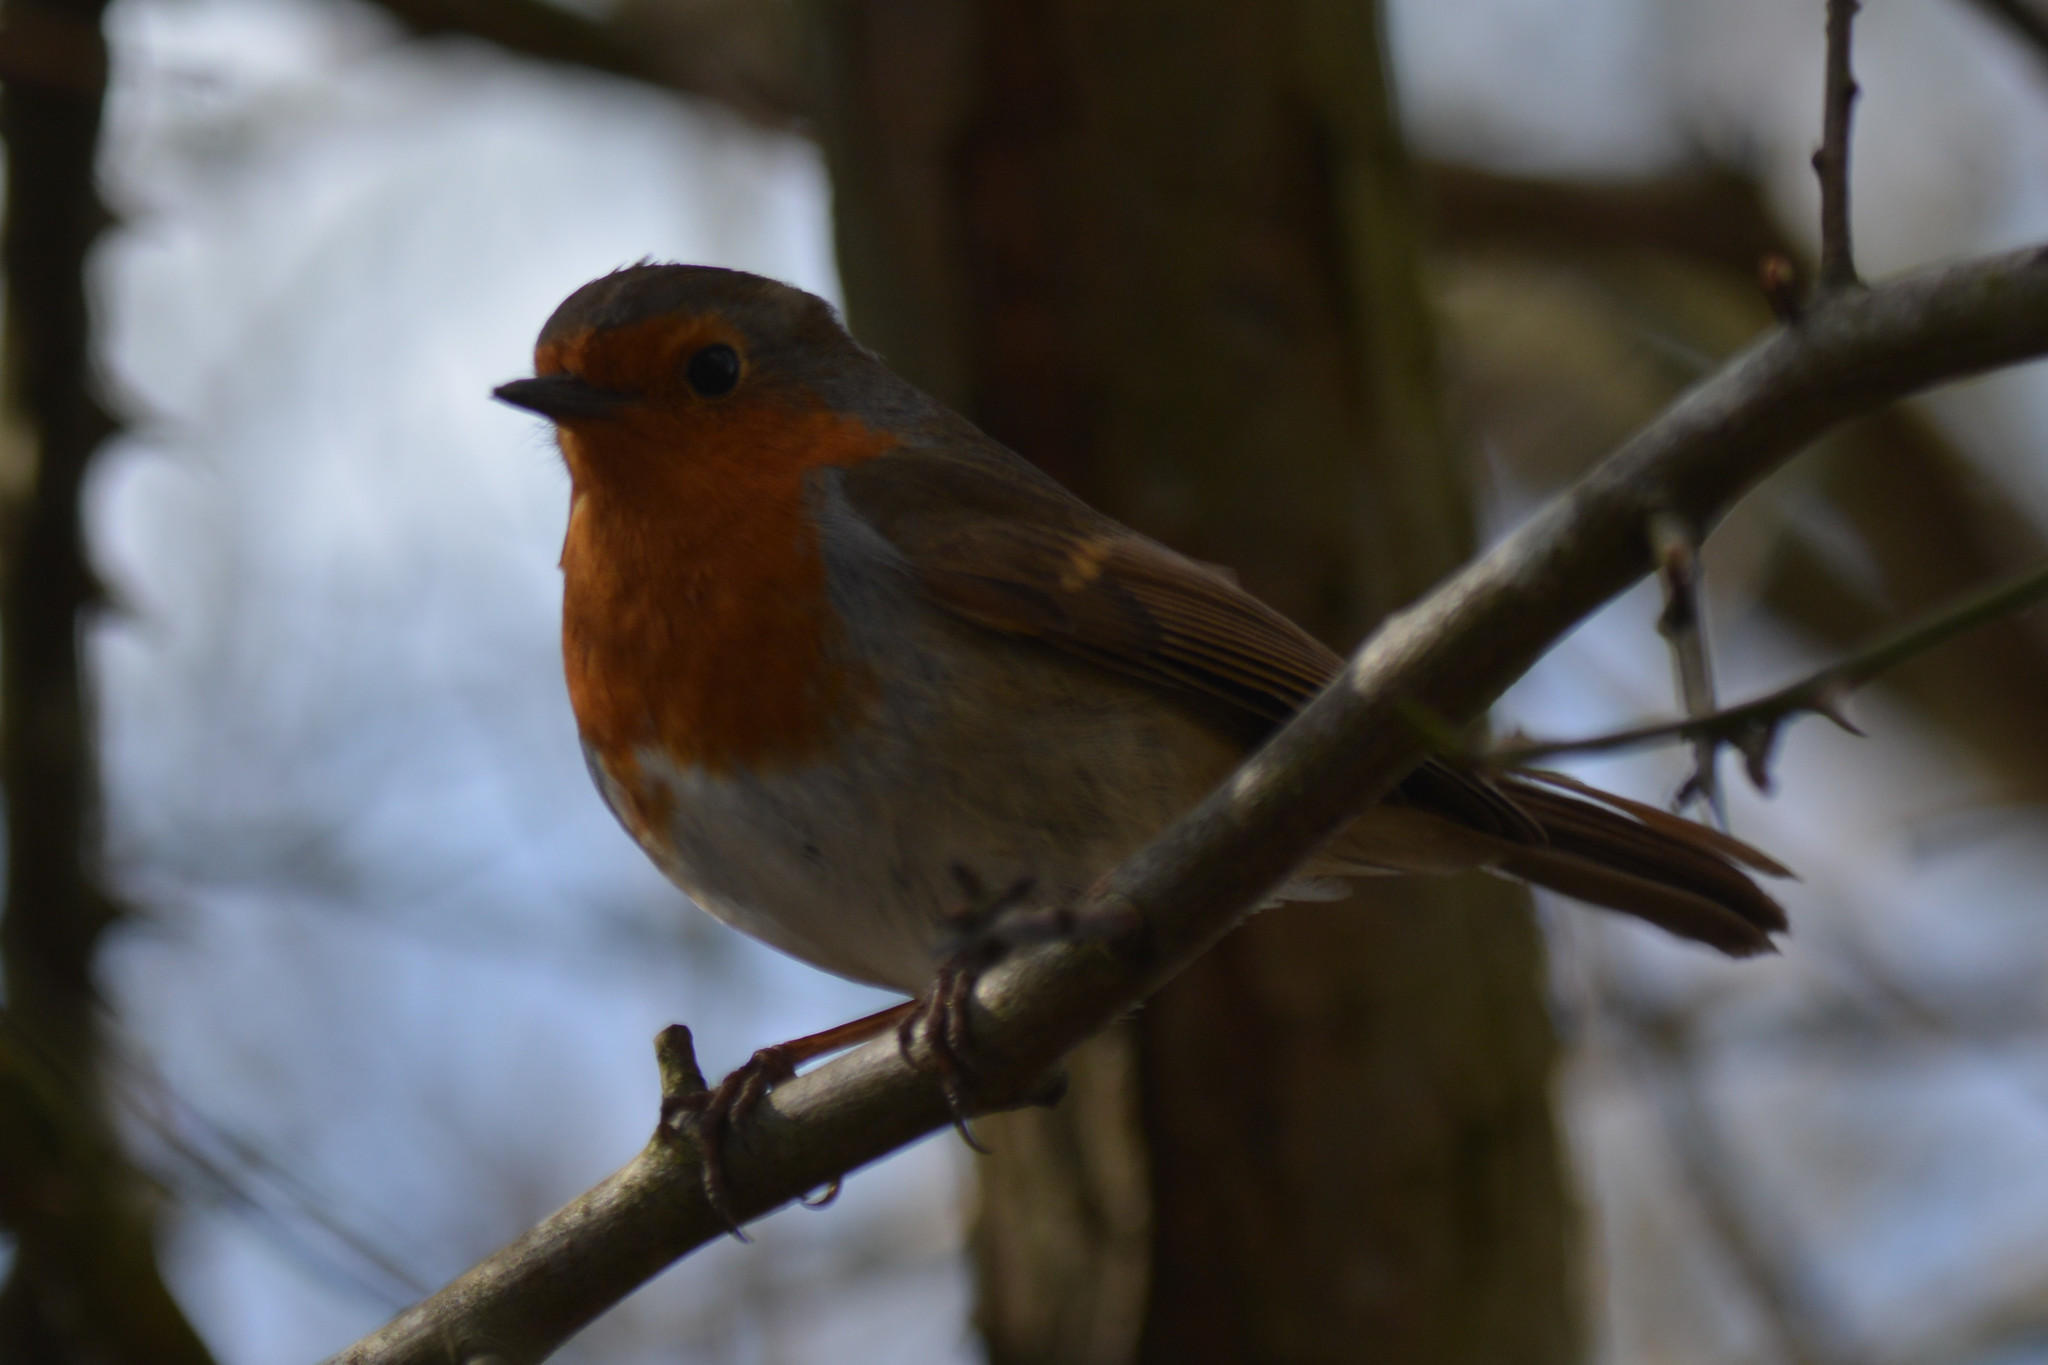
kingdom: Animalia
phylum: Chordata
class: Aves
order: Passeriformes
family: Muscicapidae
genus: Erithacus
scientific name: Erithacus rubecula
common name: European robin
